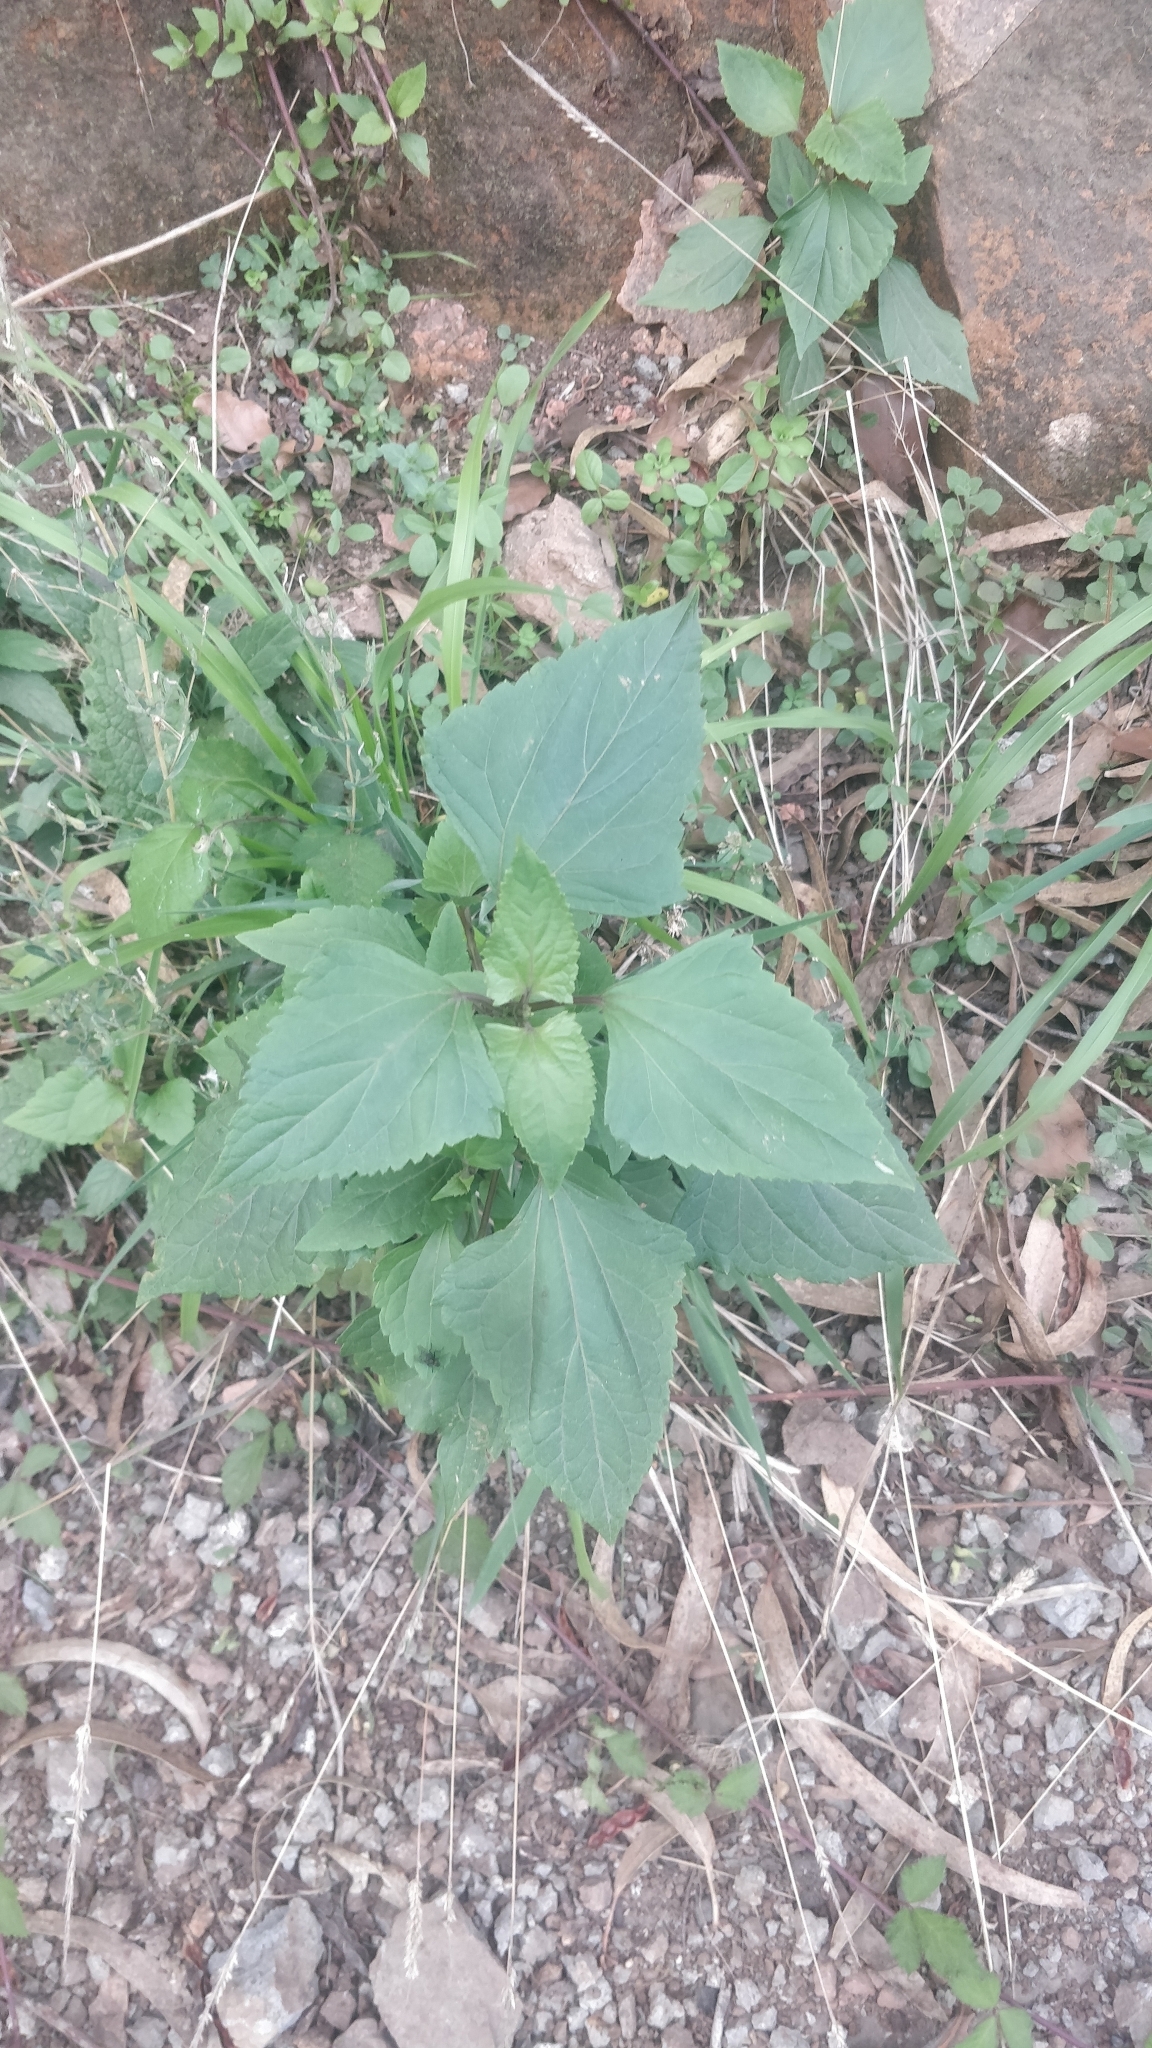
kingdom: Plantae
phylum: Tracheophyta
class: Magnoliopsida
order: Asterales
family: Asteraceae
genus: Ageratina
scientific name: Ageratina adenophora
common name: Sticky snakeroot
